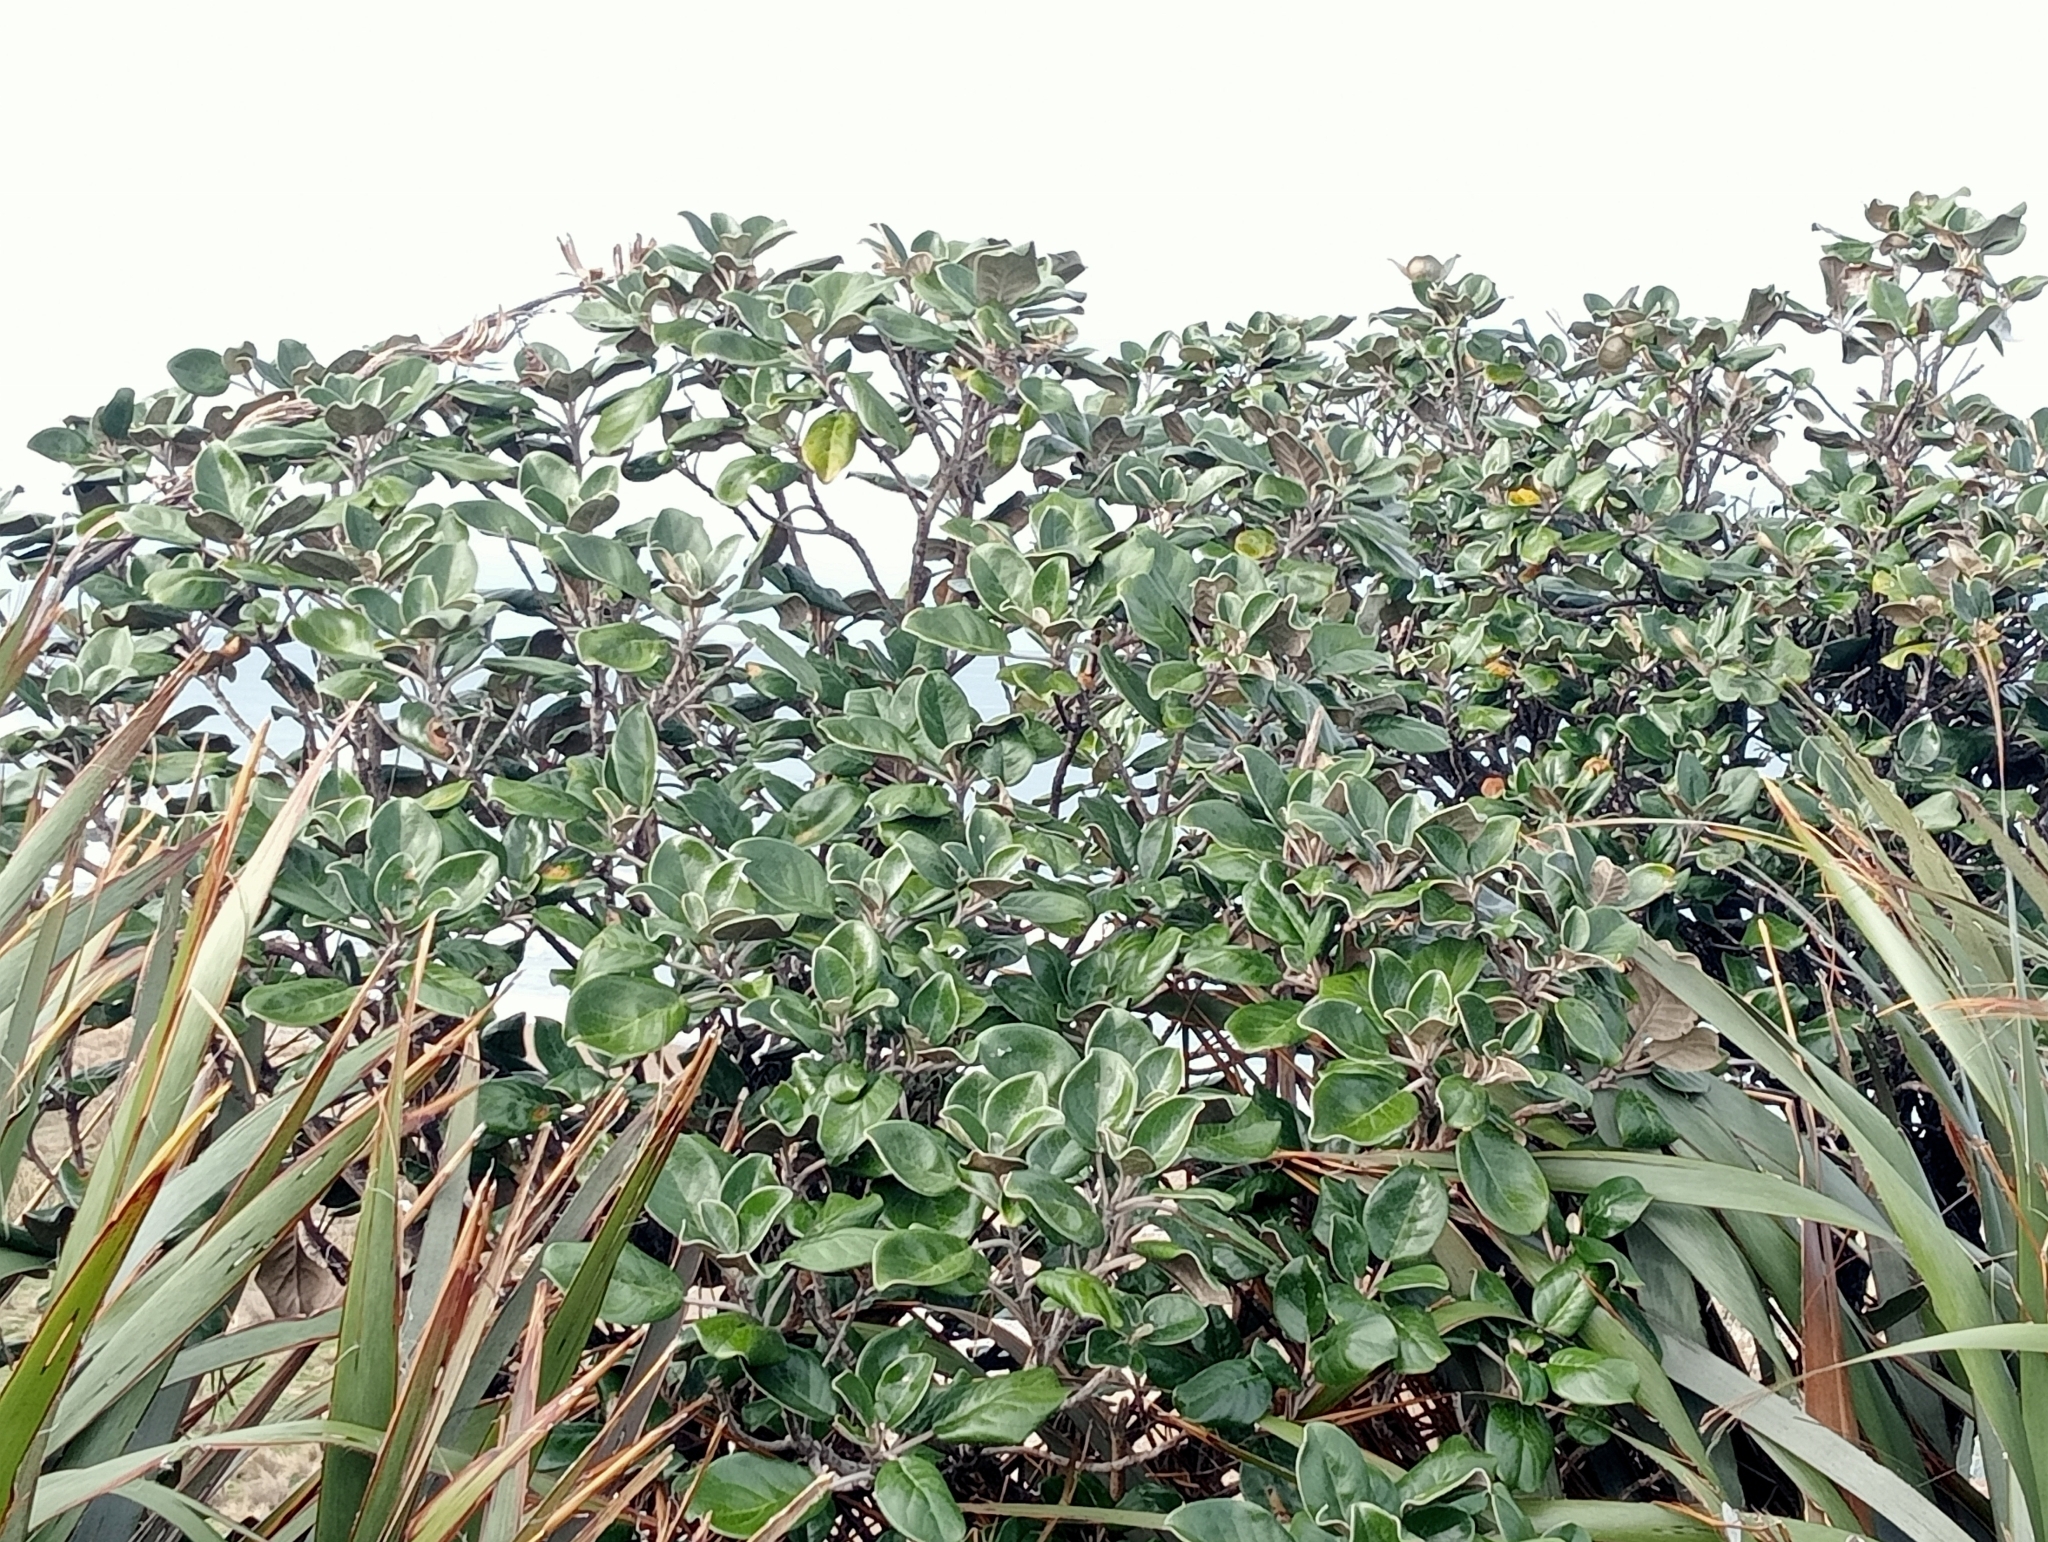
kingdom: Plantae
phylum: Tracheophyta
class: Magnoliopsida
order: Asterales
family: Asteraceae
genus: Brachyglottis
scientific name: Brachyglottis rotundifolia
